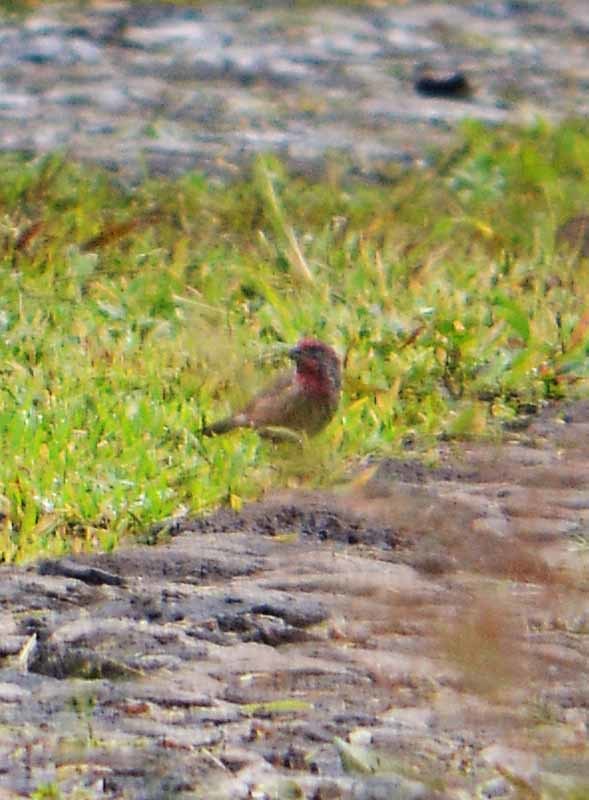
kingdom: Animalia
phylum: Chordata
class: Aves
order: Passeriformes
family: Fringillidae
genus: Haemorhous
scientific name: Haemorhous mexicanus
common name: House finch
